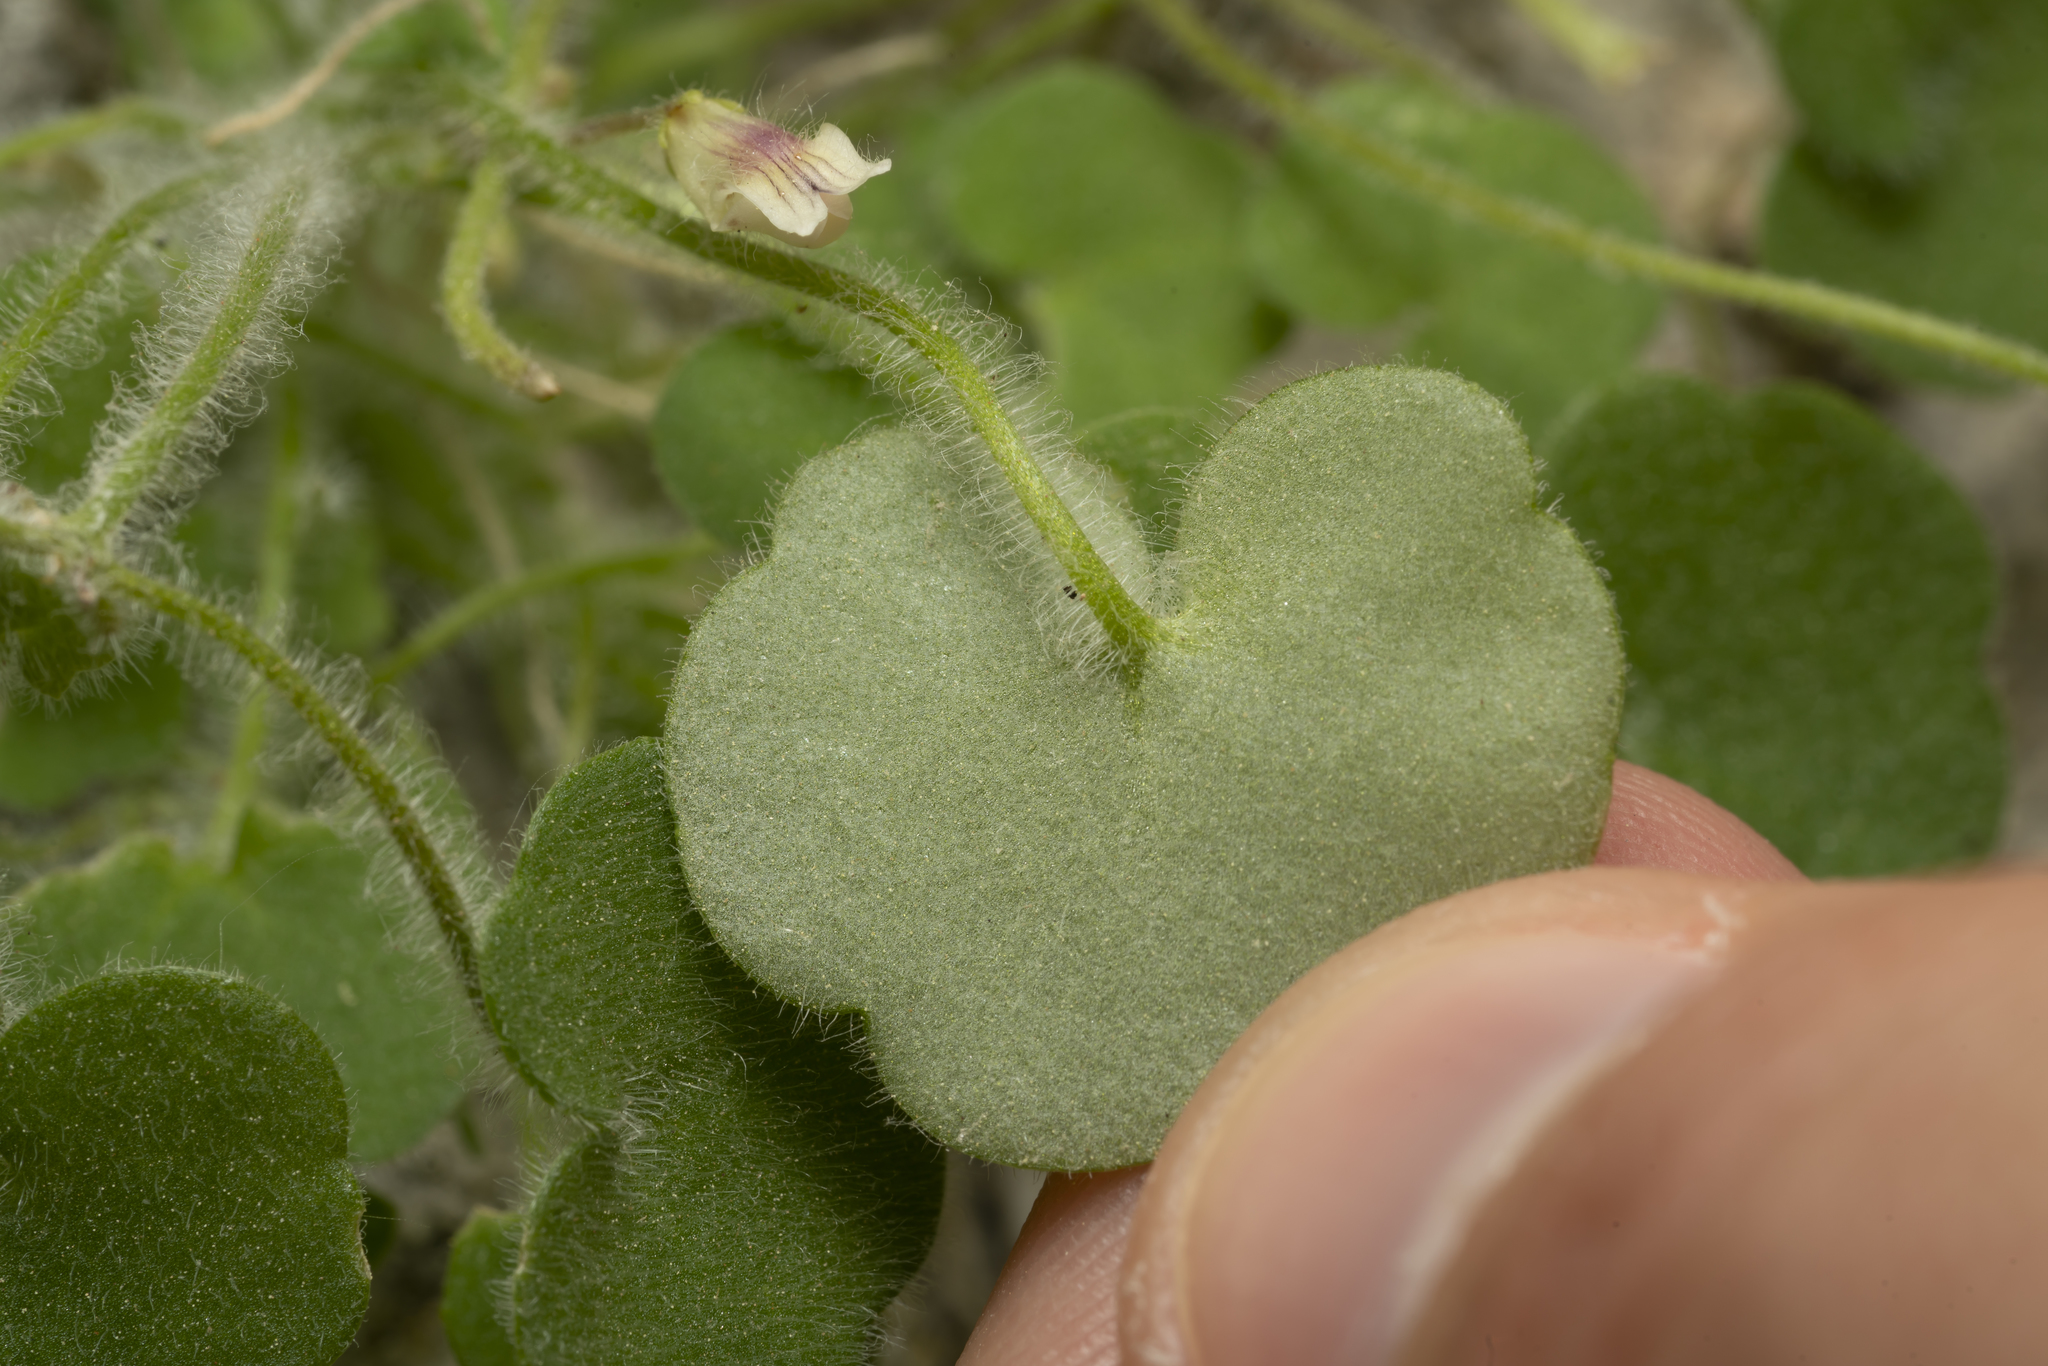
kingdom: Plantae
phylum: Tracheophyta
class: Magnoliopsida
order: Lamiales
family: Plantaginaceae
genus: Cymbalaria
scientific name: Cymbalaria acutiloba
